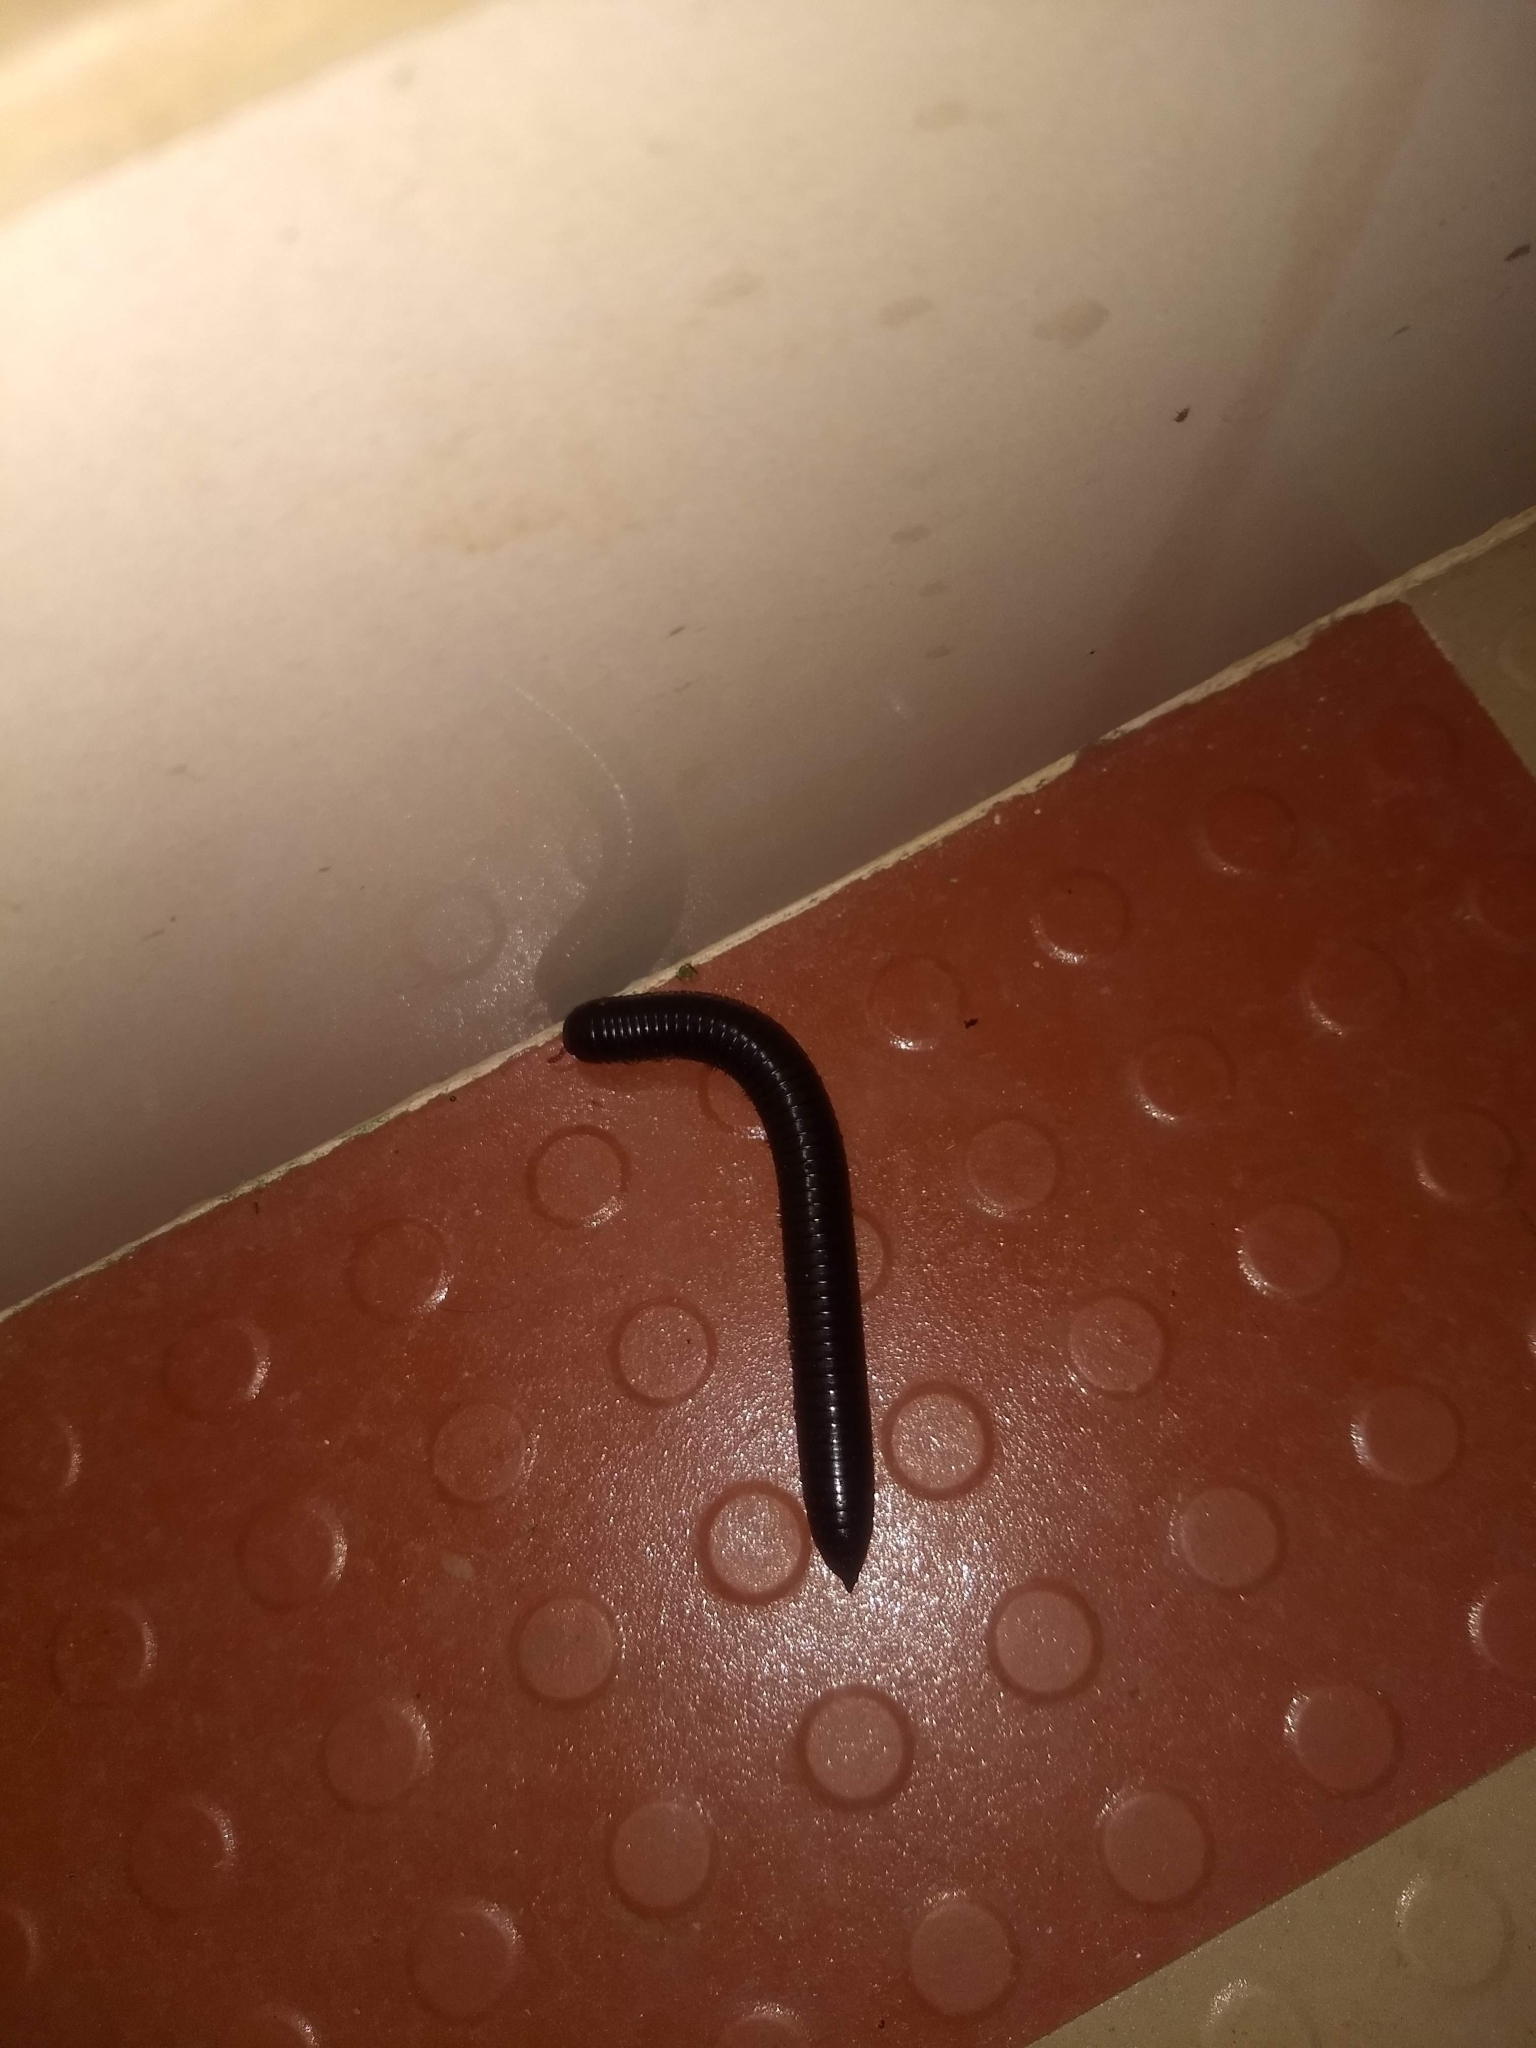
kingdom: Animalia
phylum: Arthropoda
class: Diplopoda
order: Spirostreptida
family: Harpagophoridae
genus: Phyllogonostreptus
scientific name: Phyllogonostreptus nigrolabiatus
